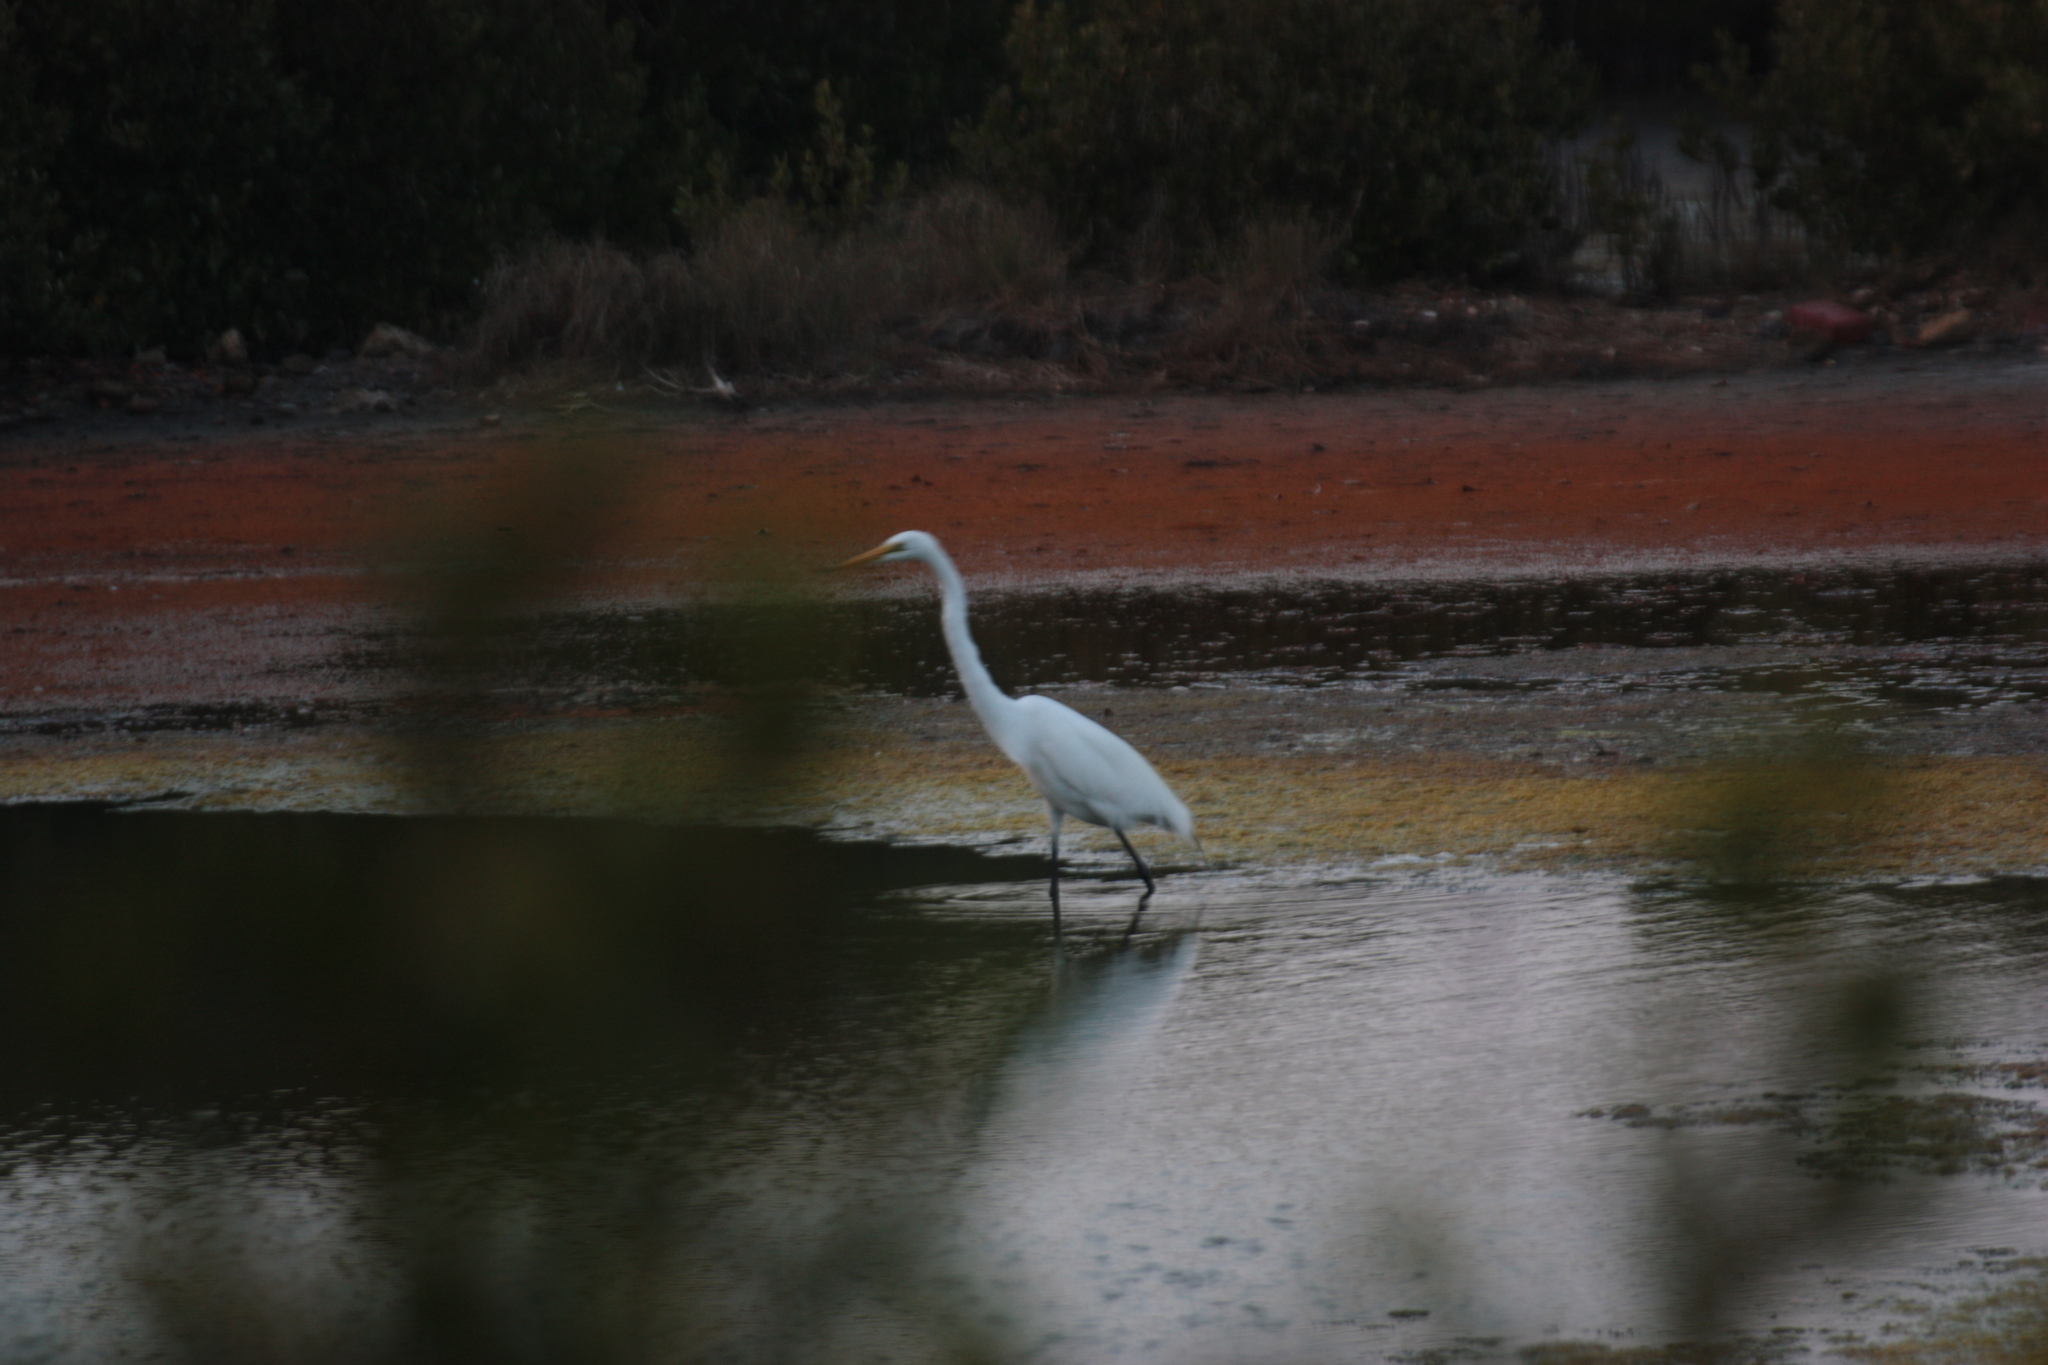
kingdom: Animalia
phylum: Chordata
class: Aves
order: Pelecaniformes
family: Ardeidae
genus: Ardea
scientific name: Ardea alba
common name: Great egret
